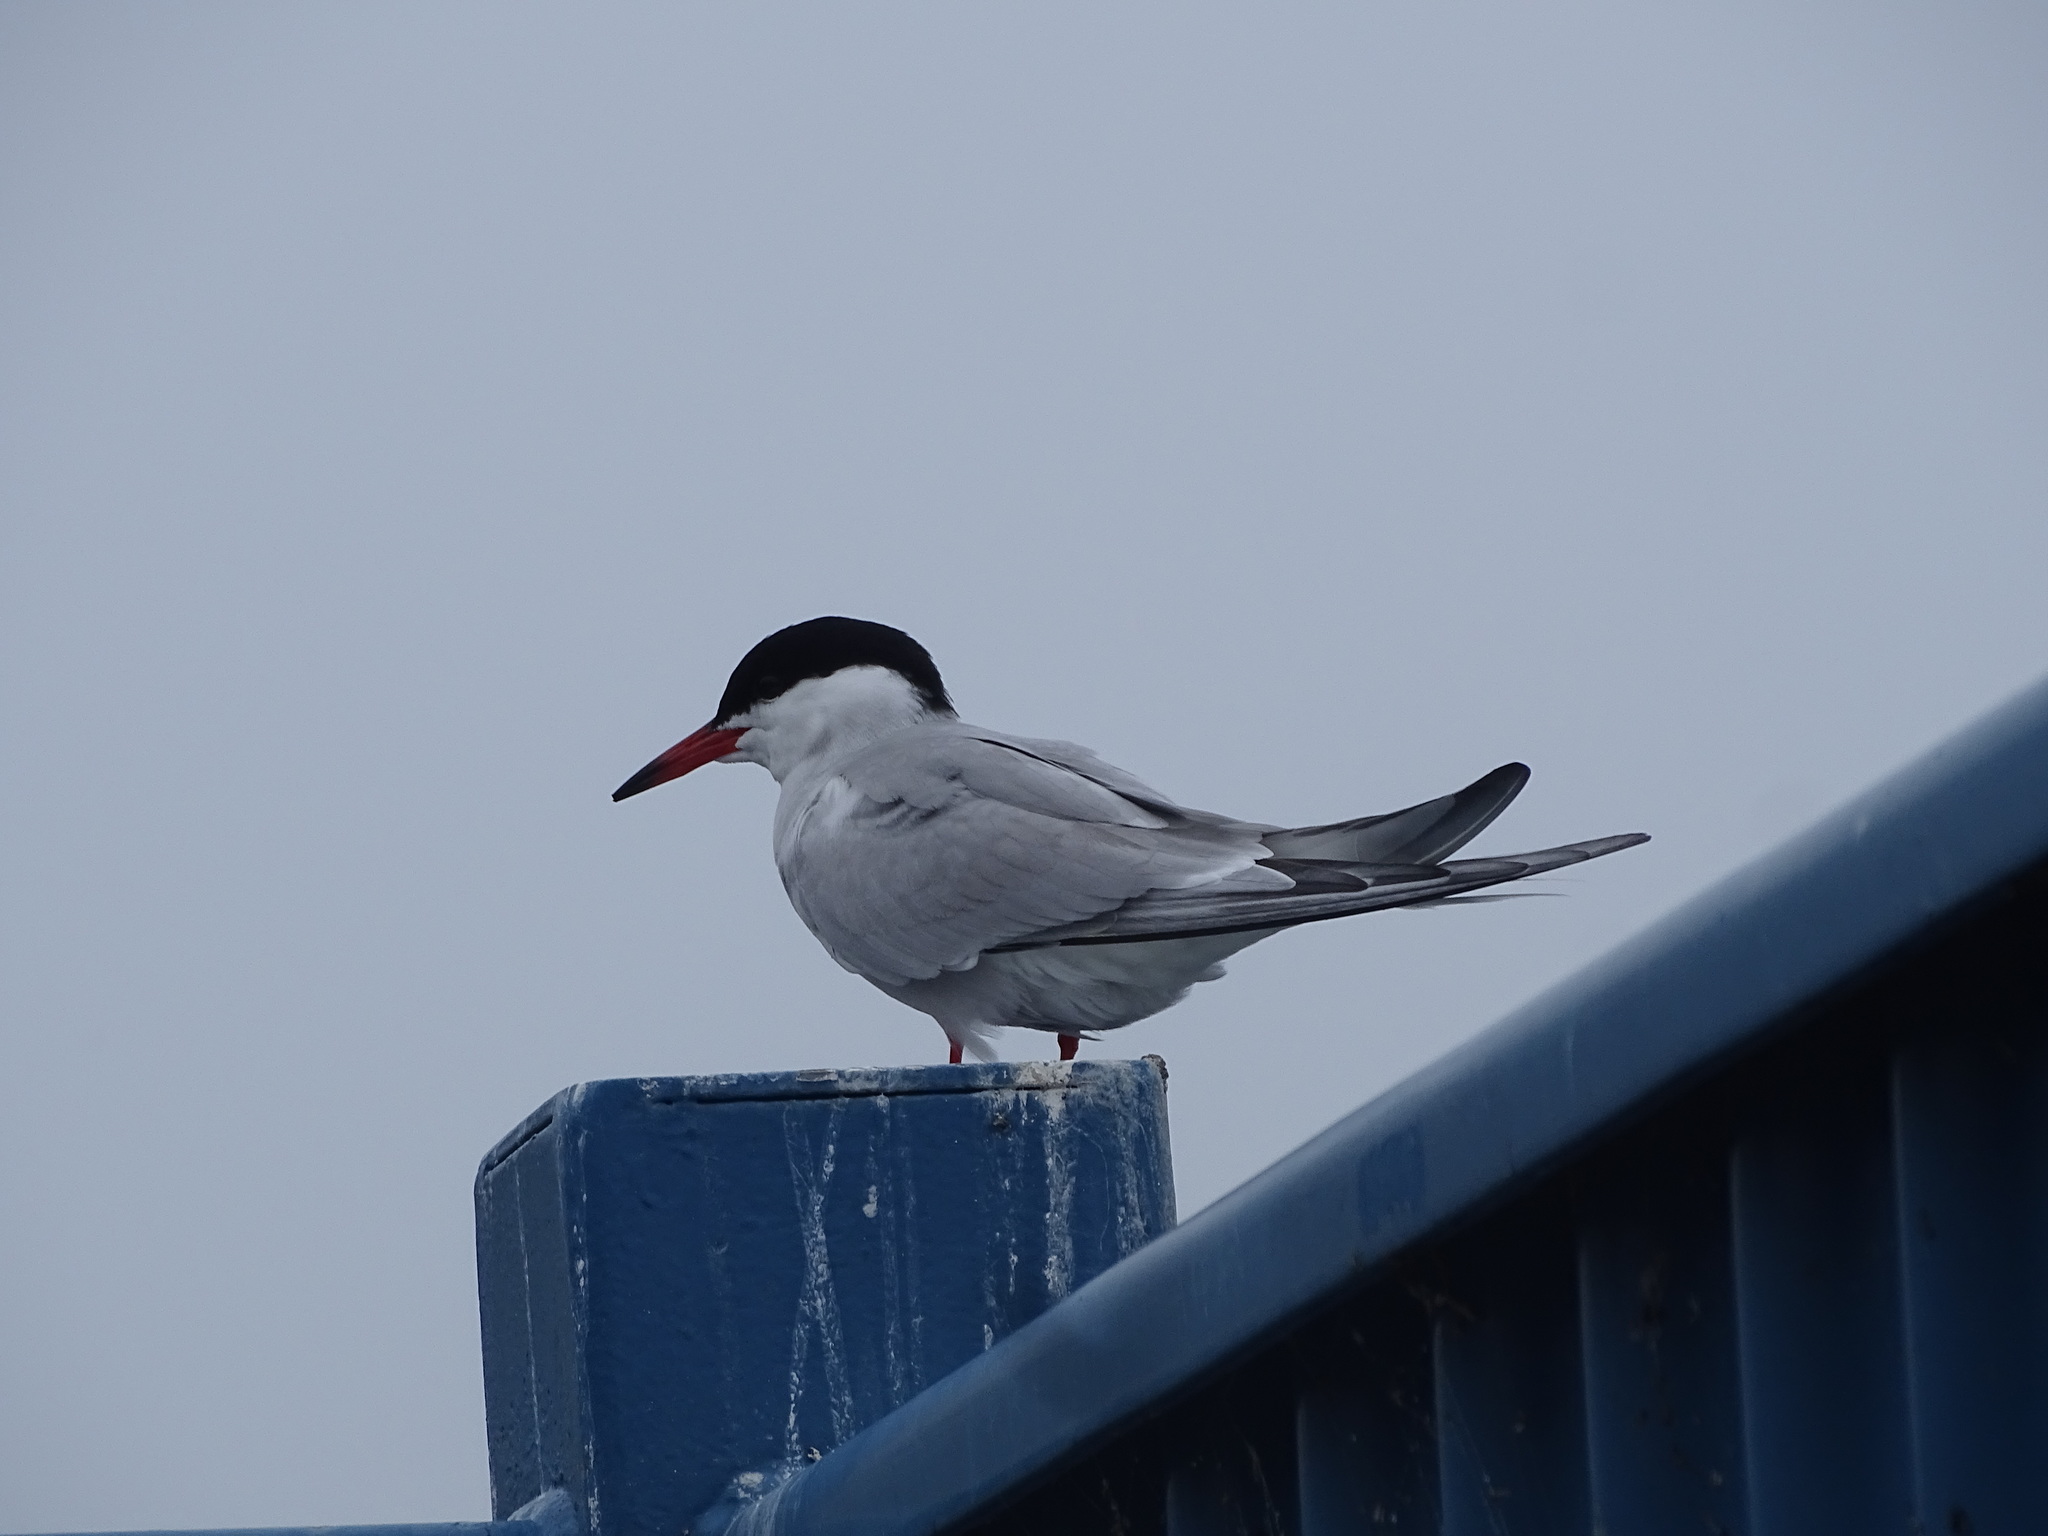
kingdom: Animalia
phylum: Chordata
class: Aves
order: Charadriiformes
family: Laridae
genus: Sterna
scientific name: Sterna hirundo
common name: Common tern
